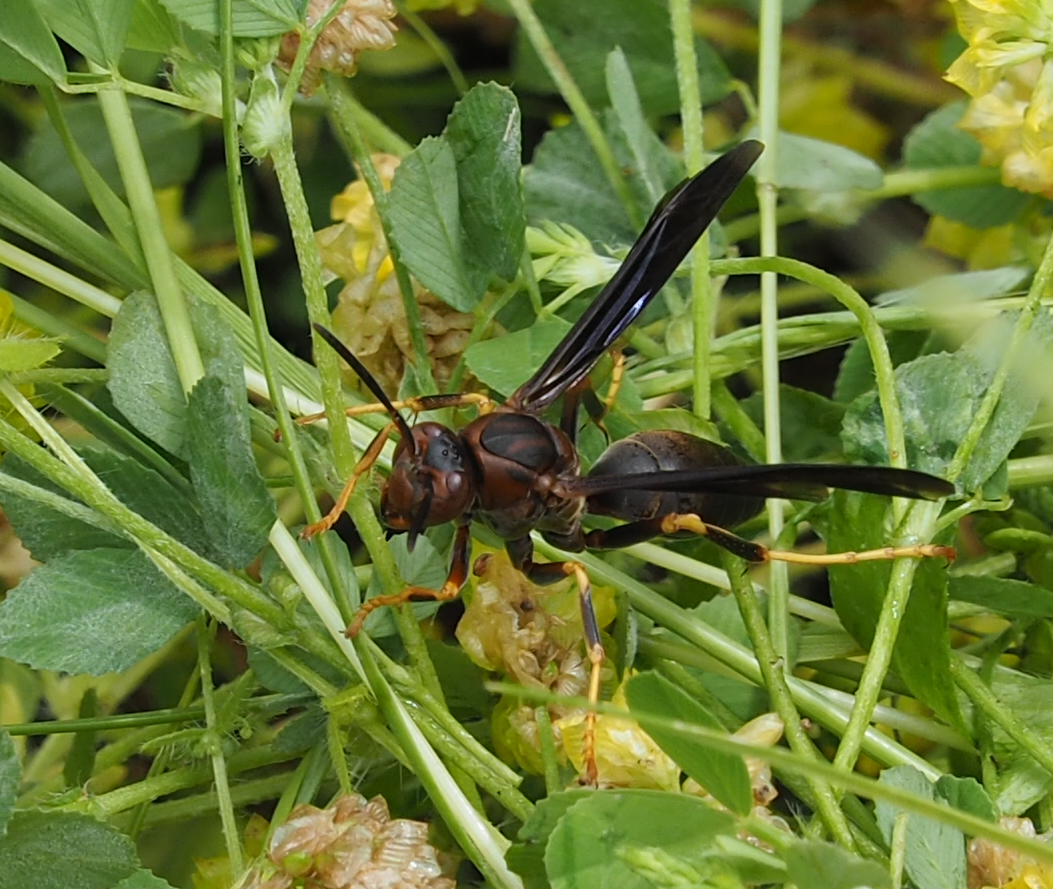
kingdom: Animalia
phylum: Arthropoda
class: Insecta
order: Hymenoptera
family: Eumenidae
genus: Polistes
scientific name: Polistes metricus
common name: Metric paper wasp
